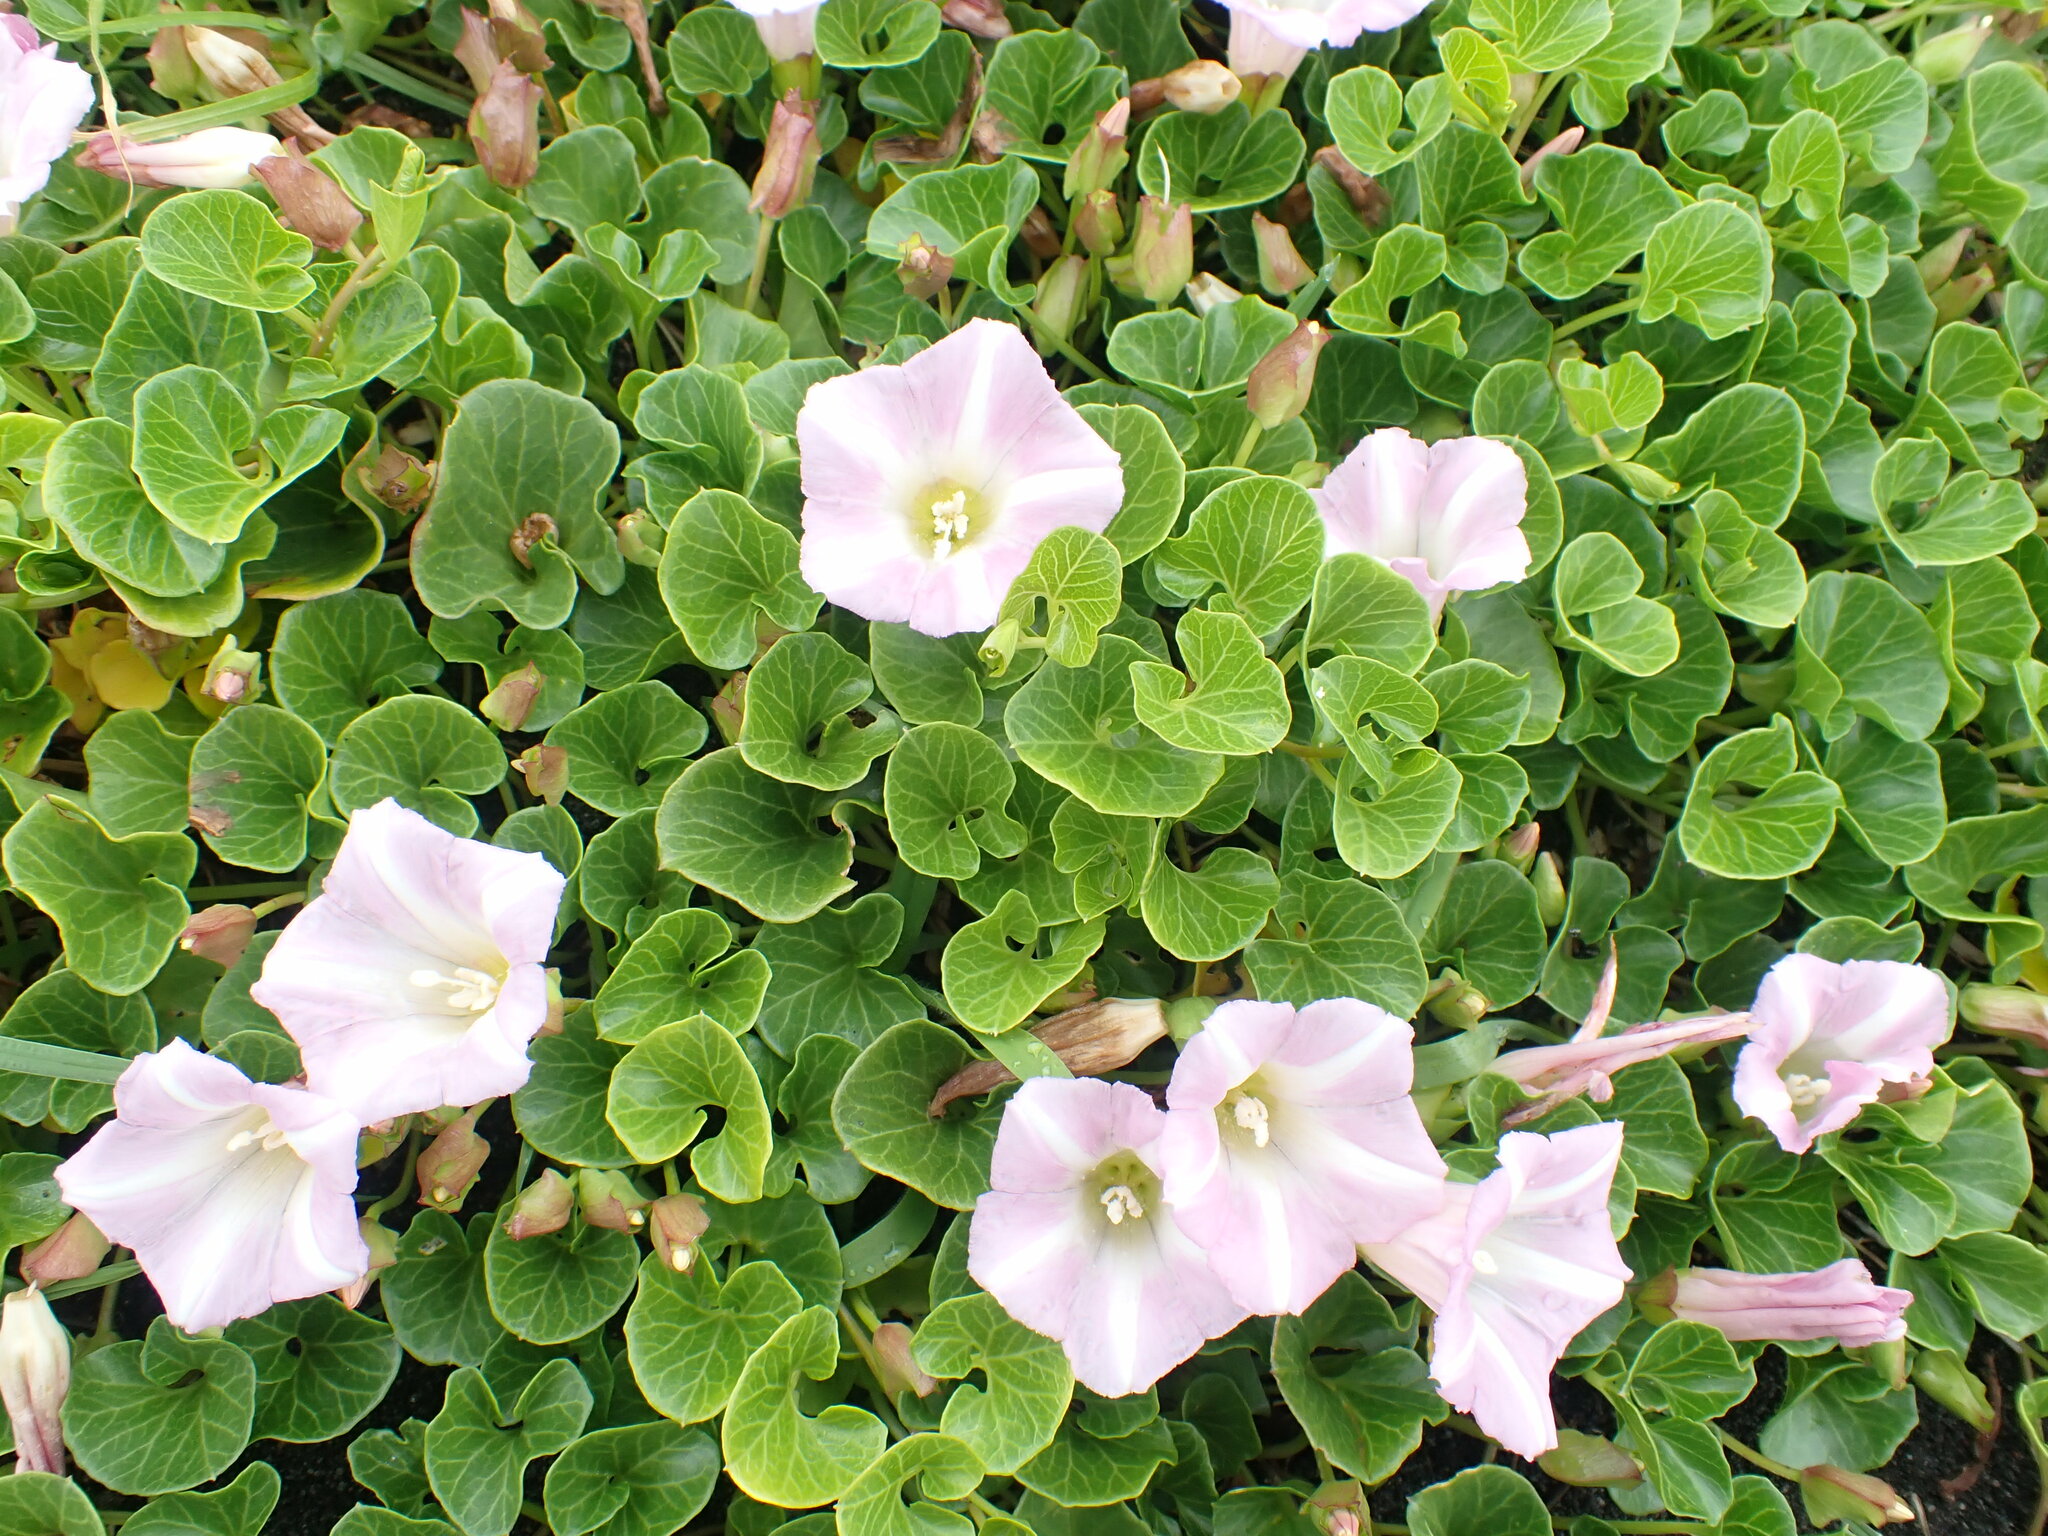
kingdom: Plantae
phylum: Tracheophyta
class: Magnoliopsida
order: Solanales
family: Convolvulaceae
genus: Calystegia
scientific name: Calystegia soldanella
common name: Sea bindweed
